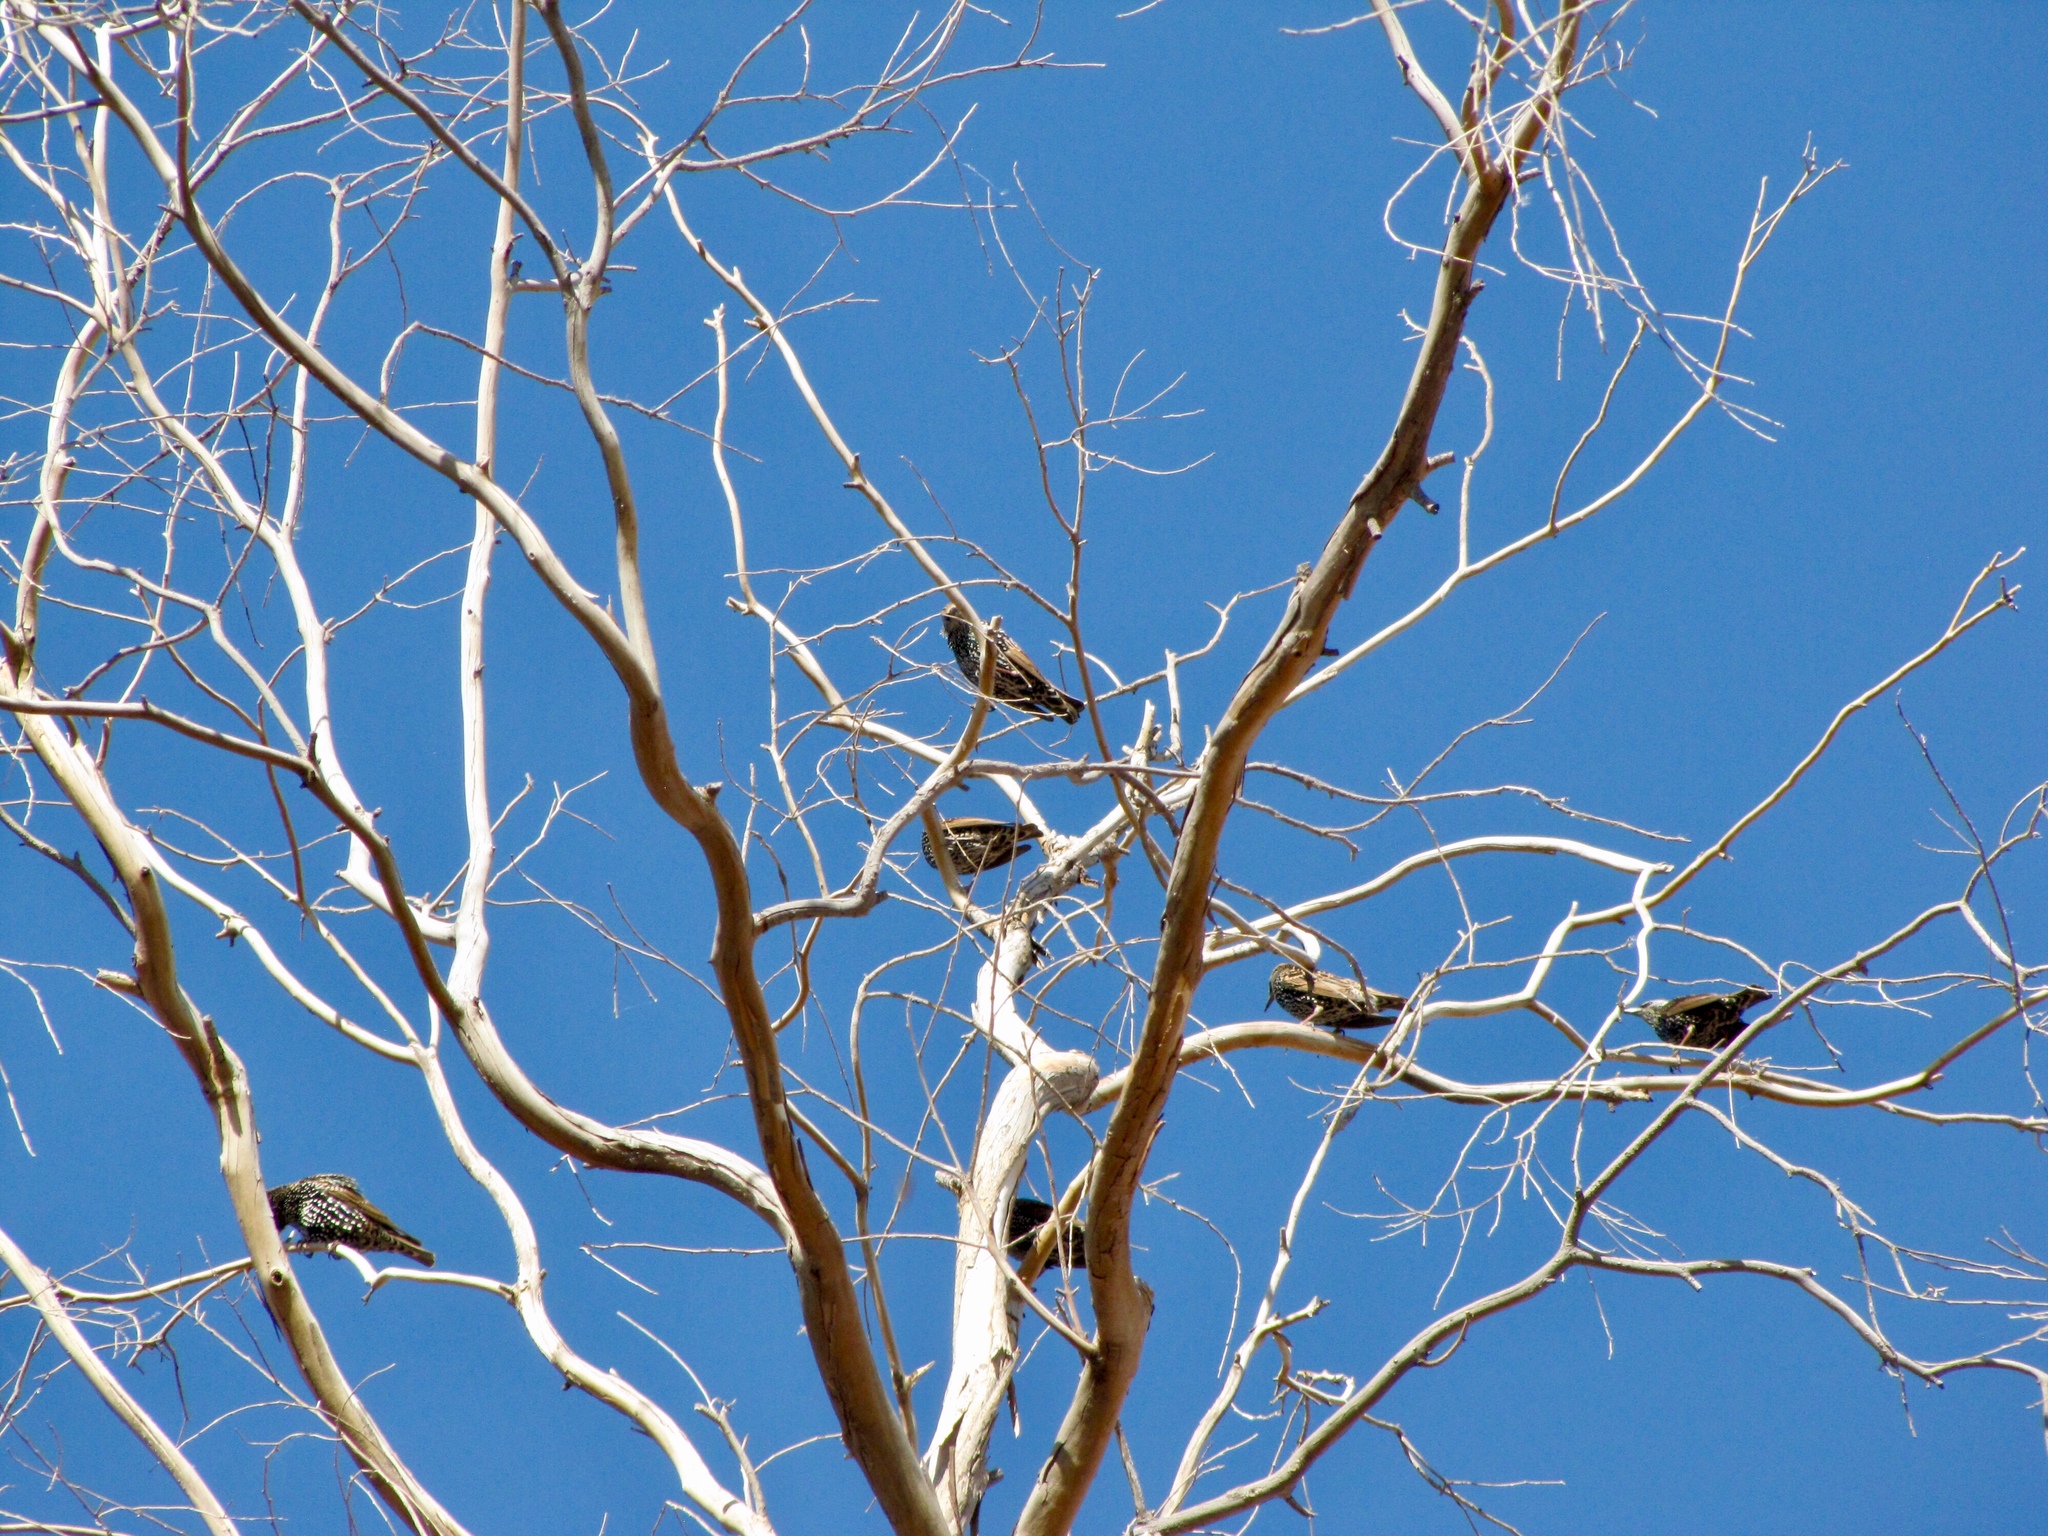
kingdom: Animalia
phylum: Chordata
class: Aves
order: Passeriformes
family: Sturnidae
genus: Sturnus
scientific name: Sturnus vulgaris
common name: Common starling
